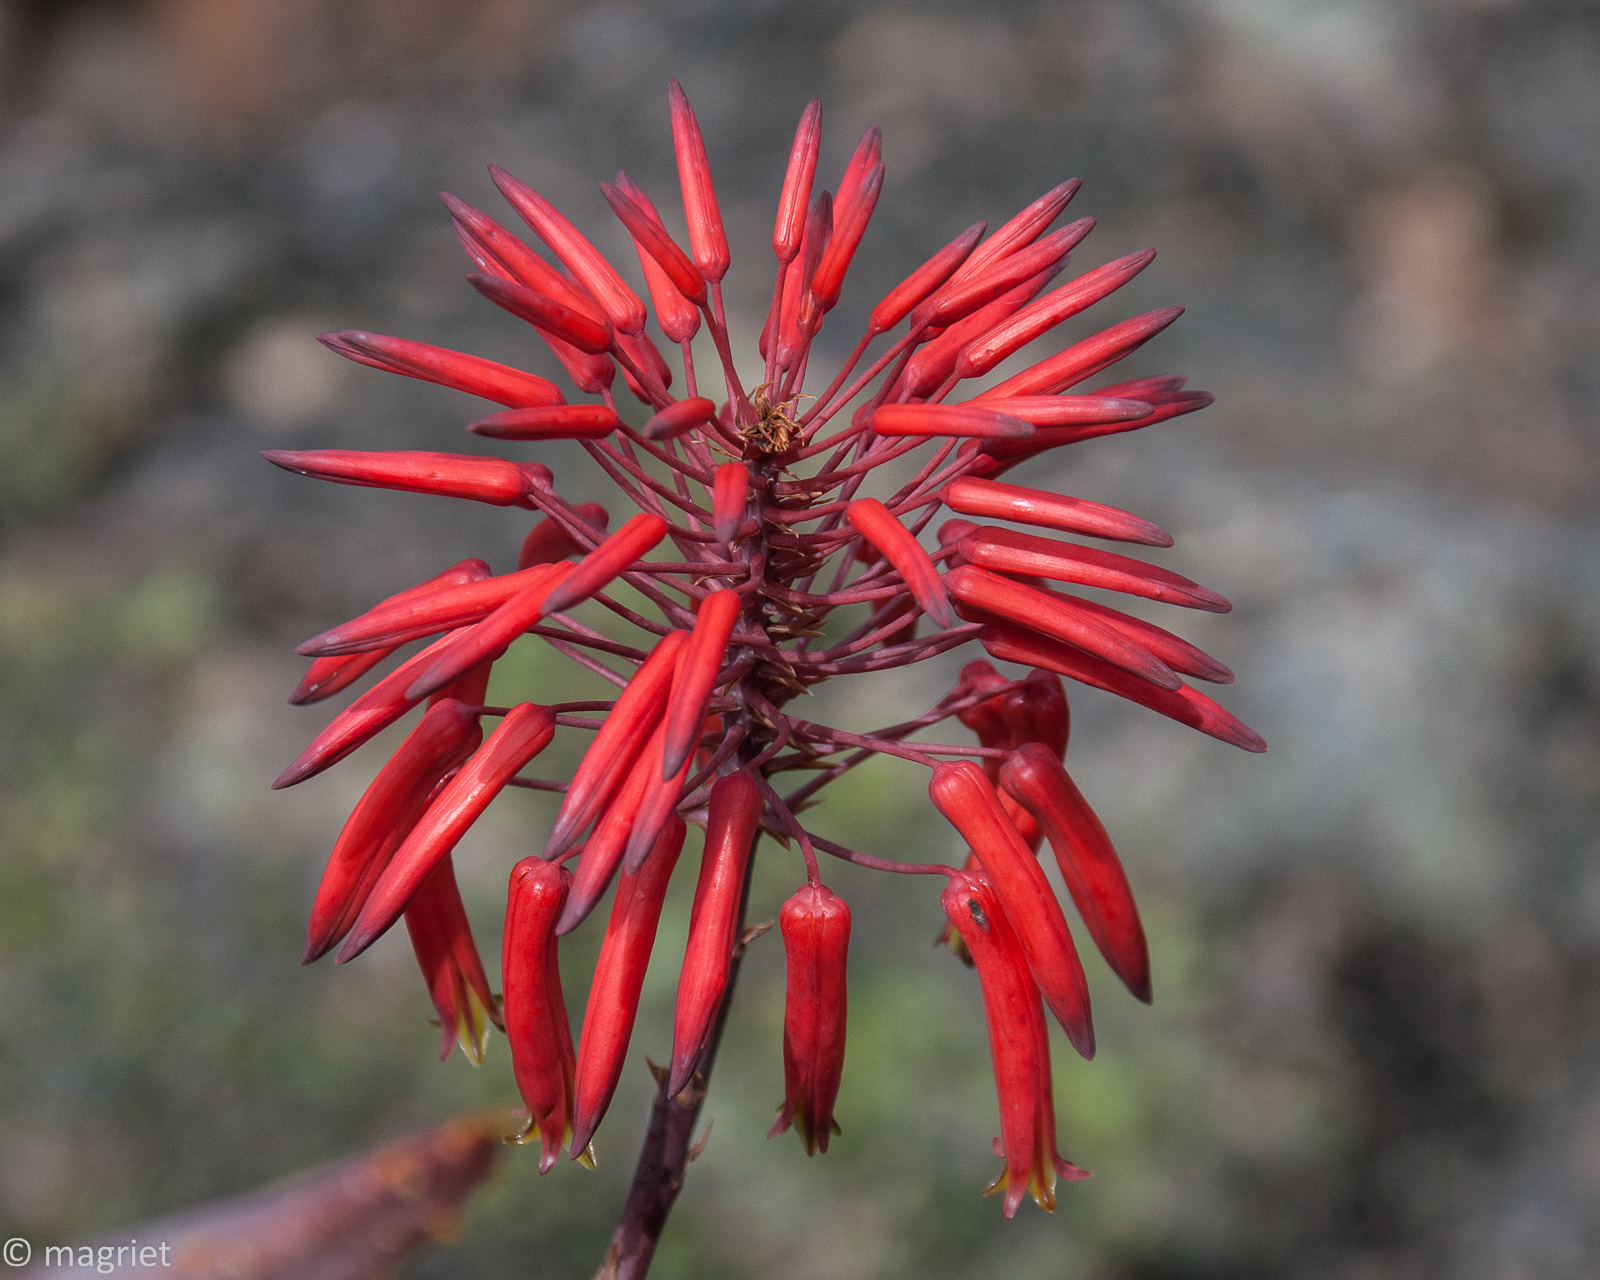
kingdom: Plantae
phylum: Tracheophyta
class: Liliopsida
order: Asparagales
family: Asphodelaceae
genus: Aloe
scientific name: Aloe perfoliata
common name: Mitra aloe
